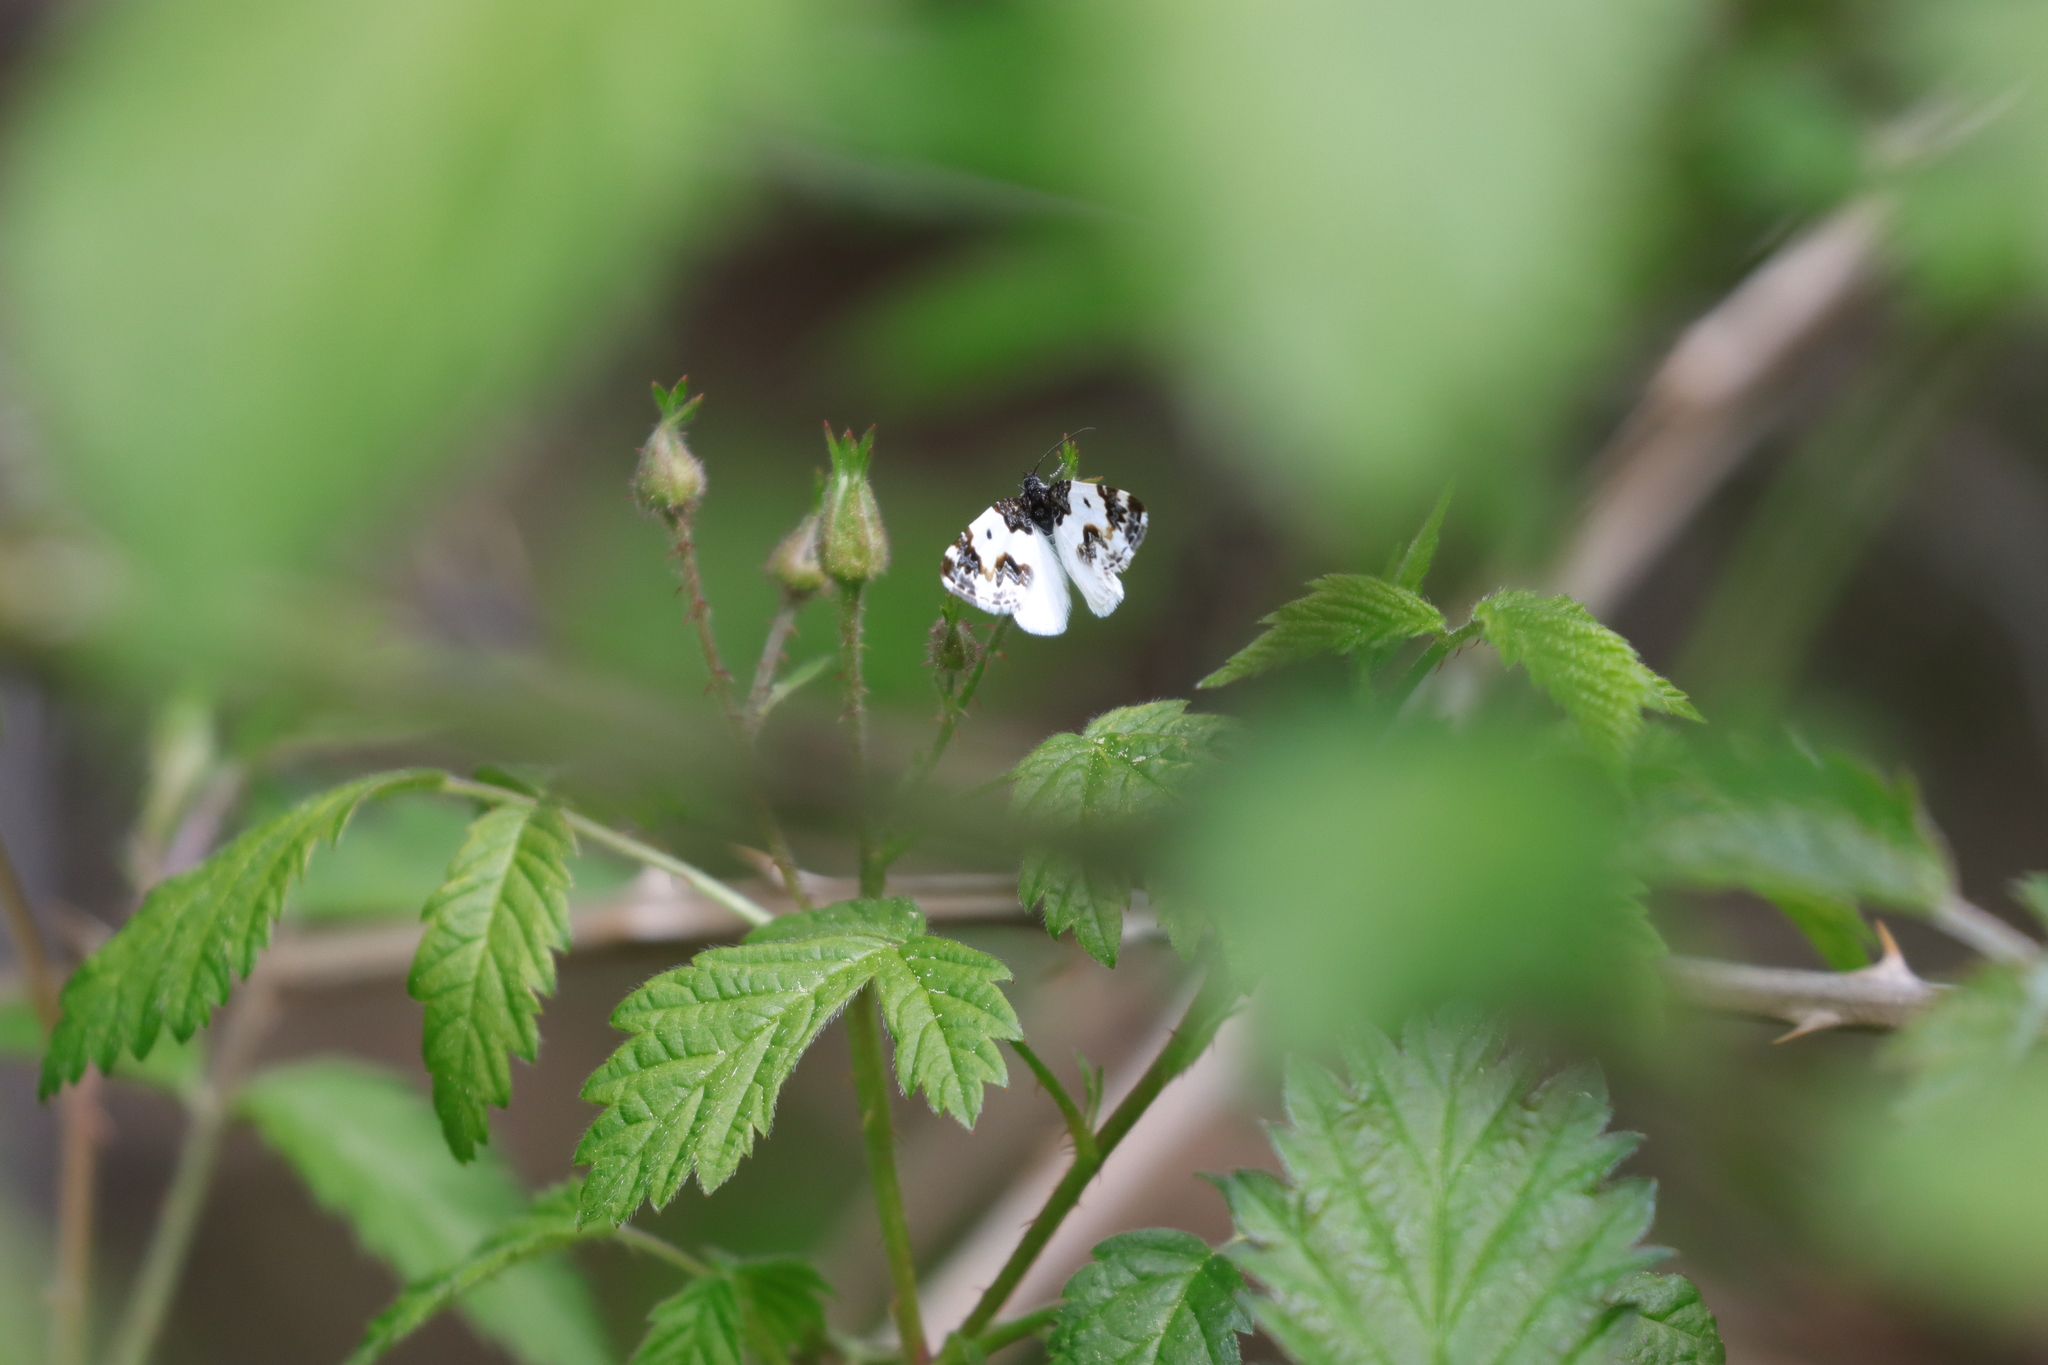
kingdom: Animalia
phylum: Arthropoda
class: Insecta
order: Lepidoptera
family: Geometridae
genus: Mesoleuca
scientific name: Mesoleuca gratulata
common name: Half-white carpet moth
